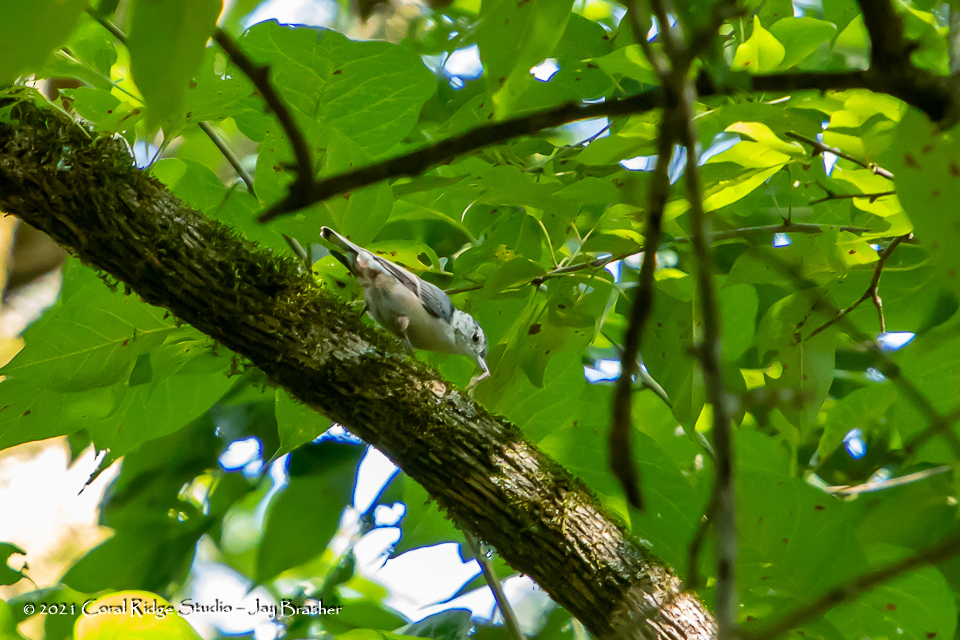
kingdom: Animalia
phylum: Chordata
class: Aves
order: Passeriformes
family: Sittidae
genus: Sitta
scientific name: Sitta carolinensis
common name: White-breasted nuthatch
